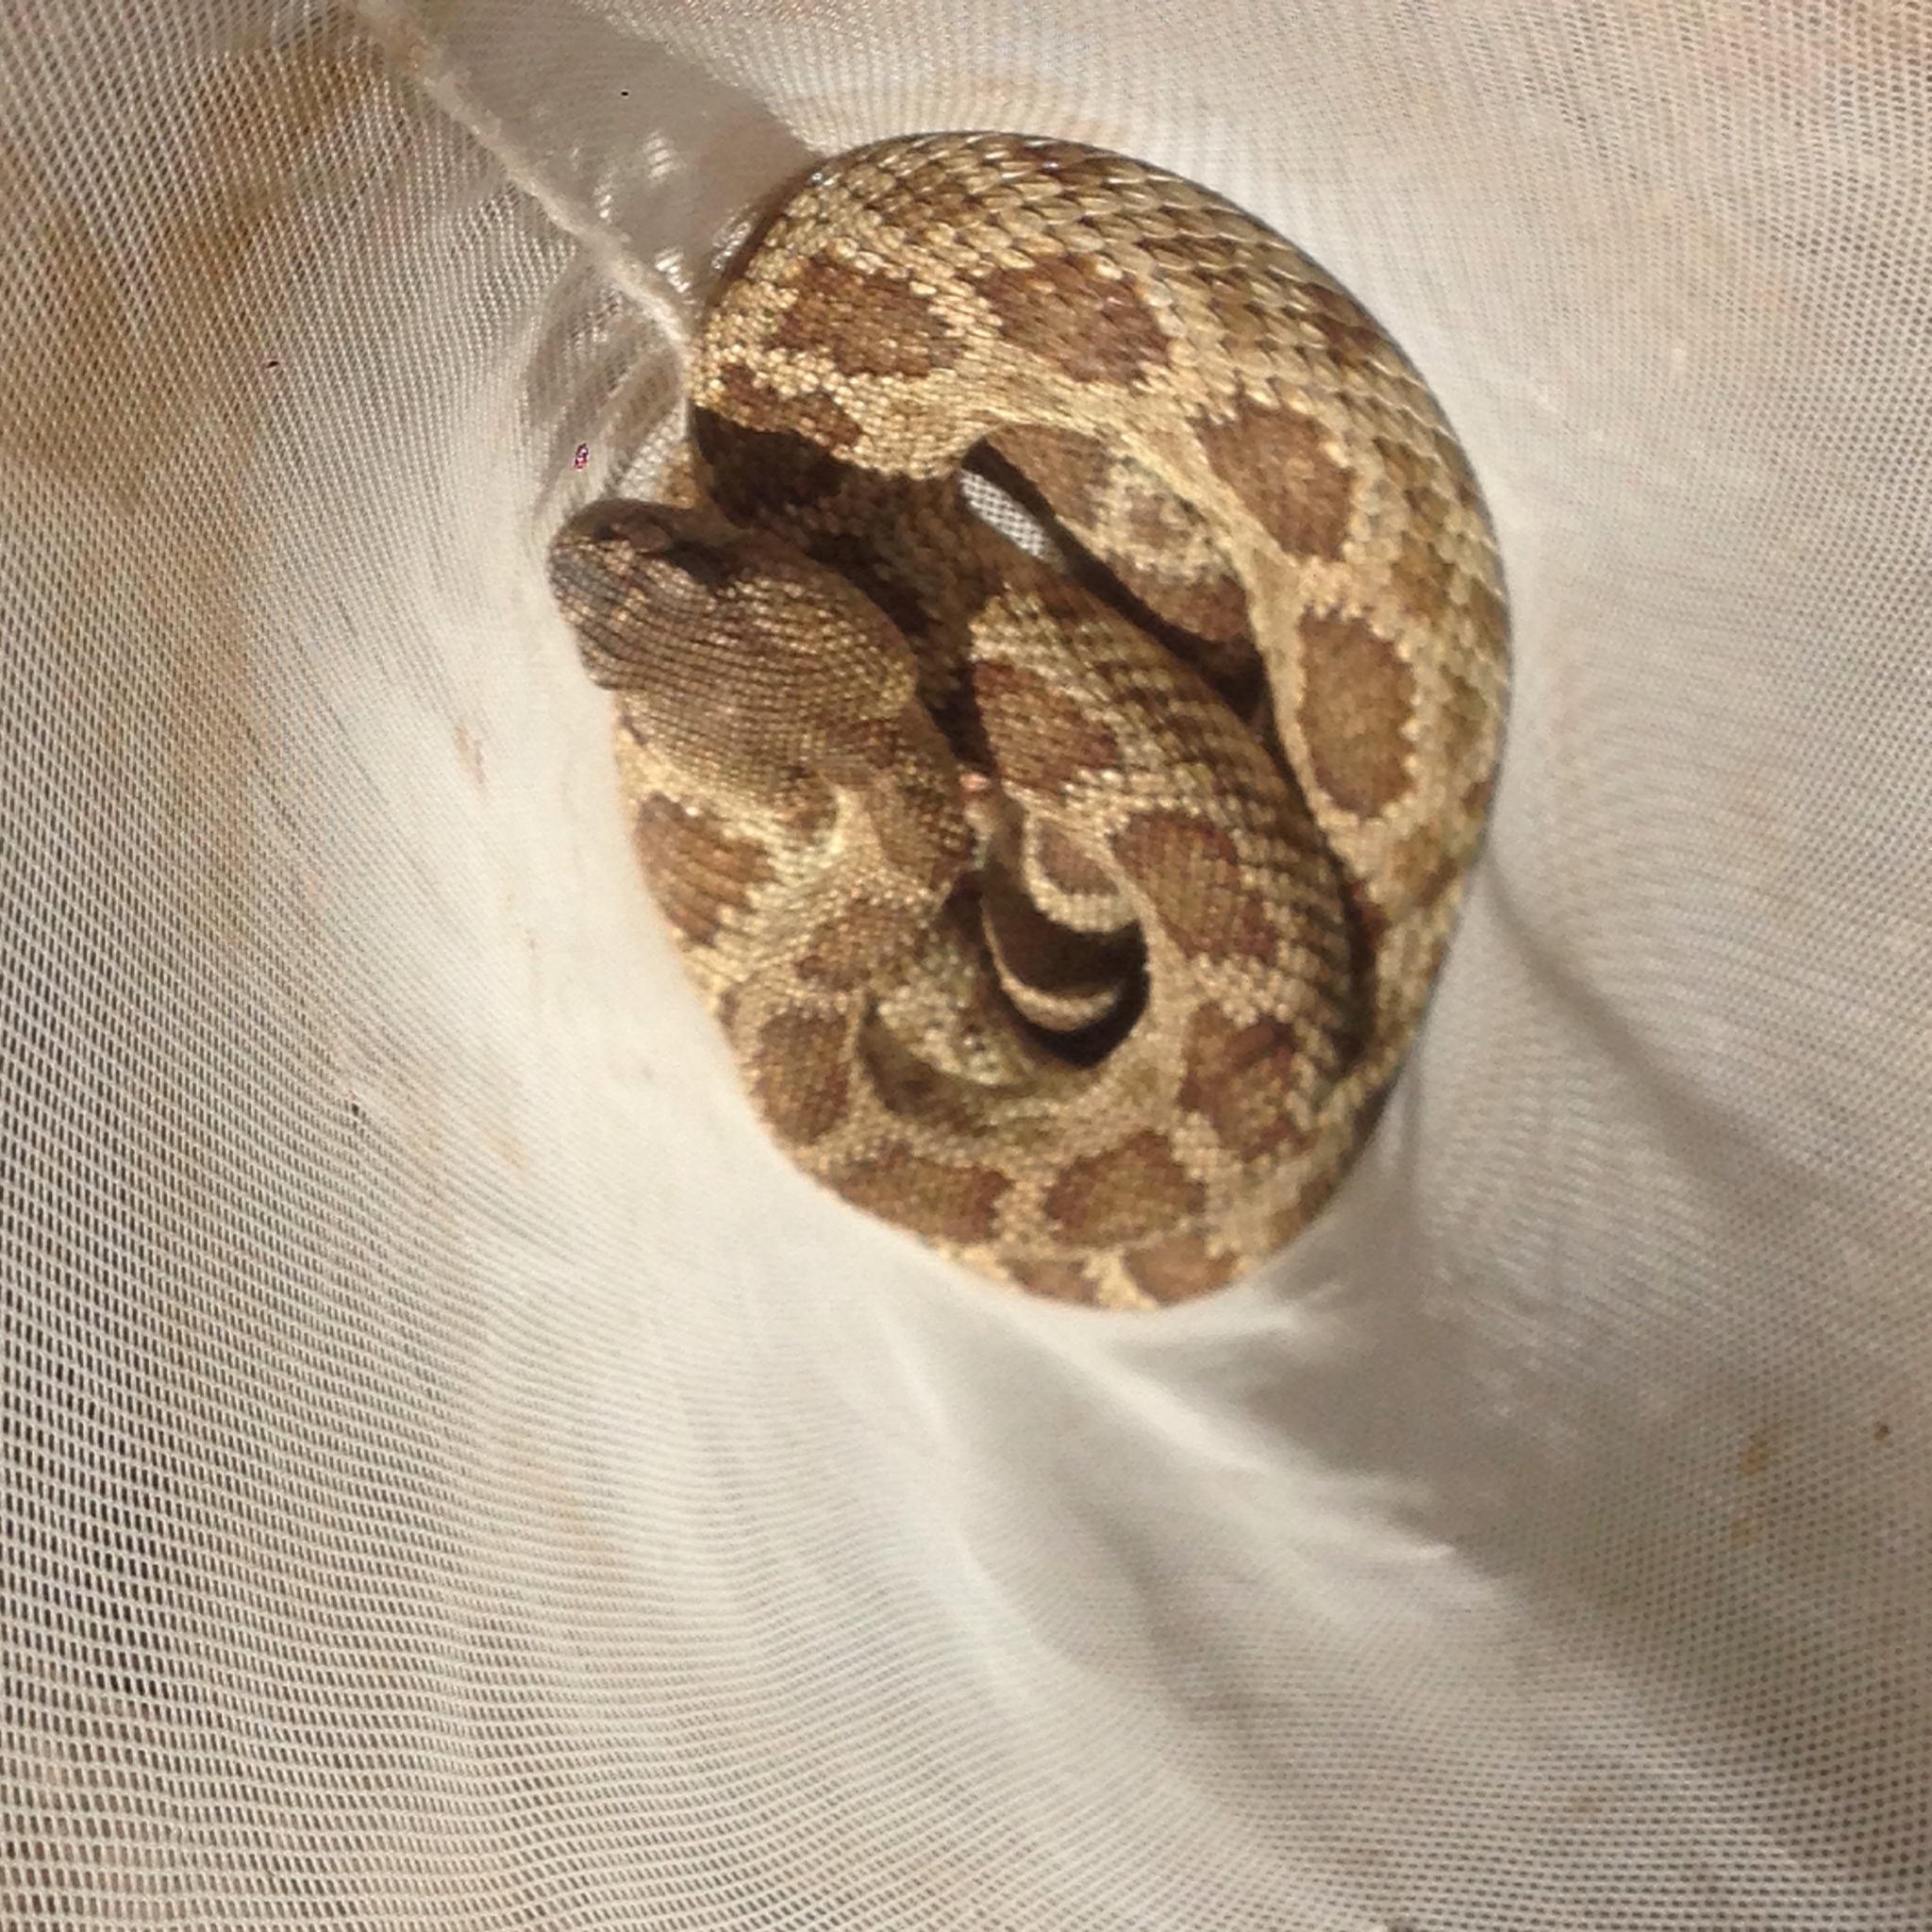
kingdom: Animalia
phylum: Chordata
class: Squamata
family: Viperidae
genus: Crotalus
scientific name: Crotalus oreganus
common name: Abyssus
